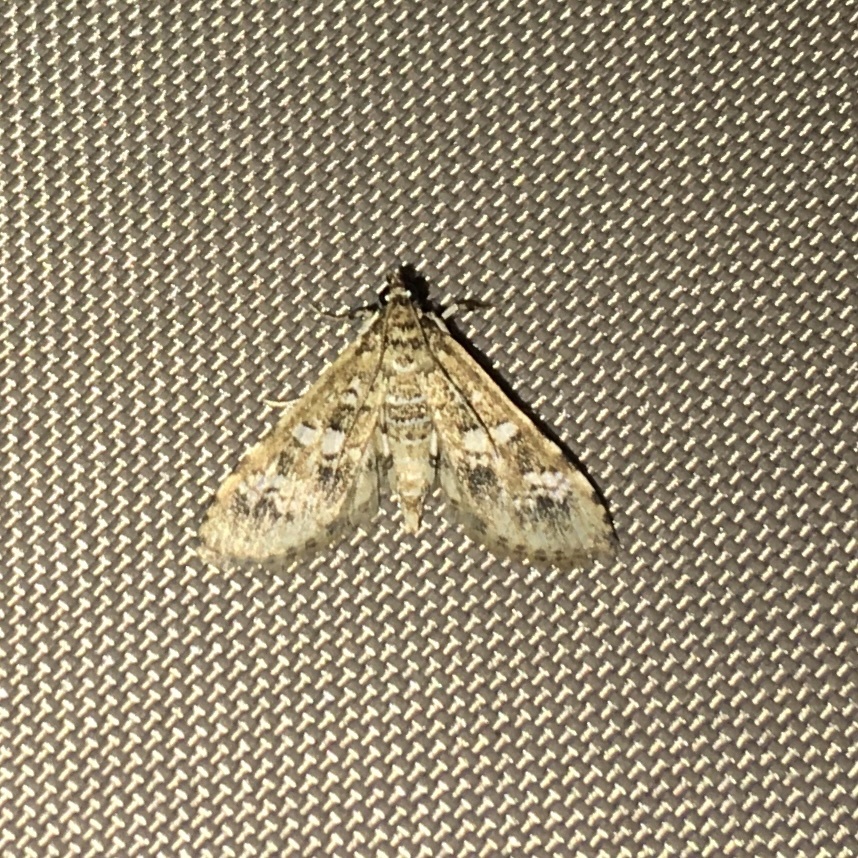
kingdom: Animalia
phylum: Arthropoda
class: Insecta
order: Lepidoptera
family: Crambidae
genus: Samea
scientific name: Samea multiplicalis
